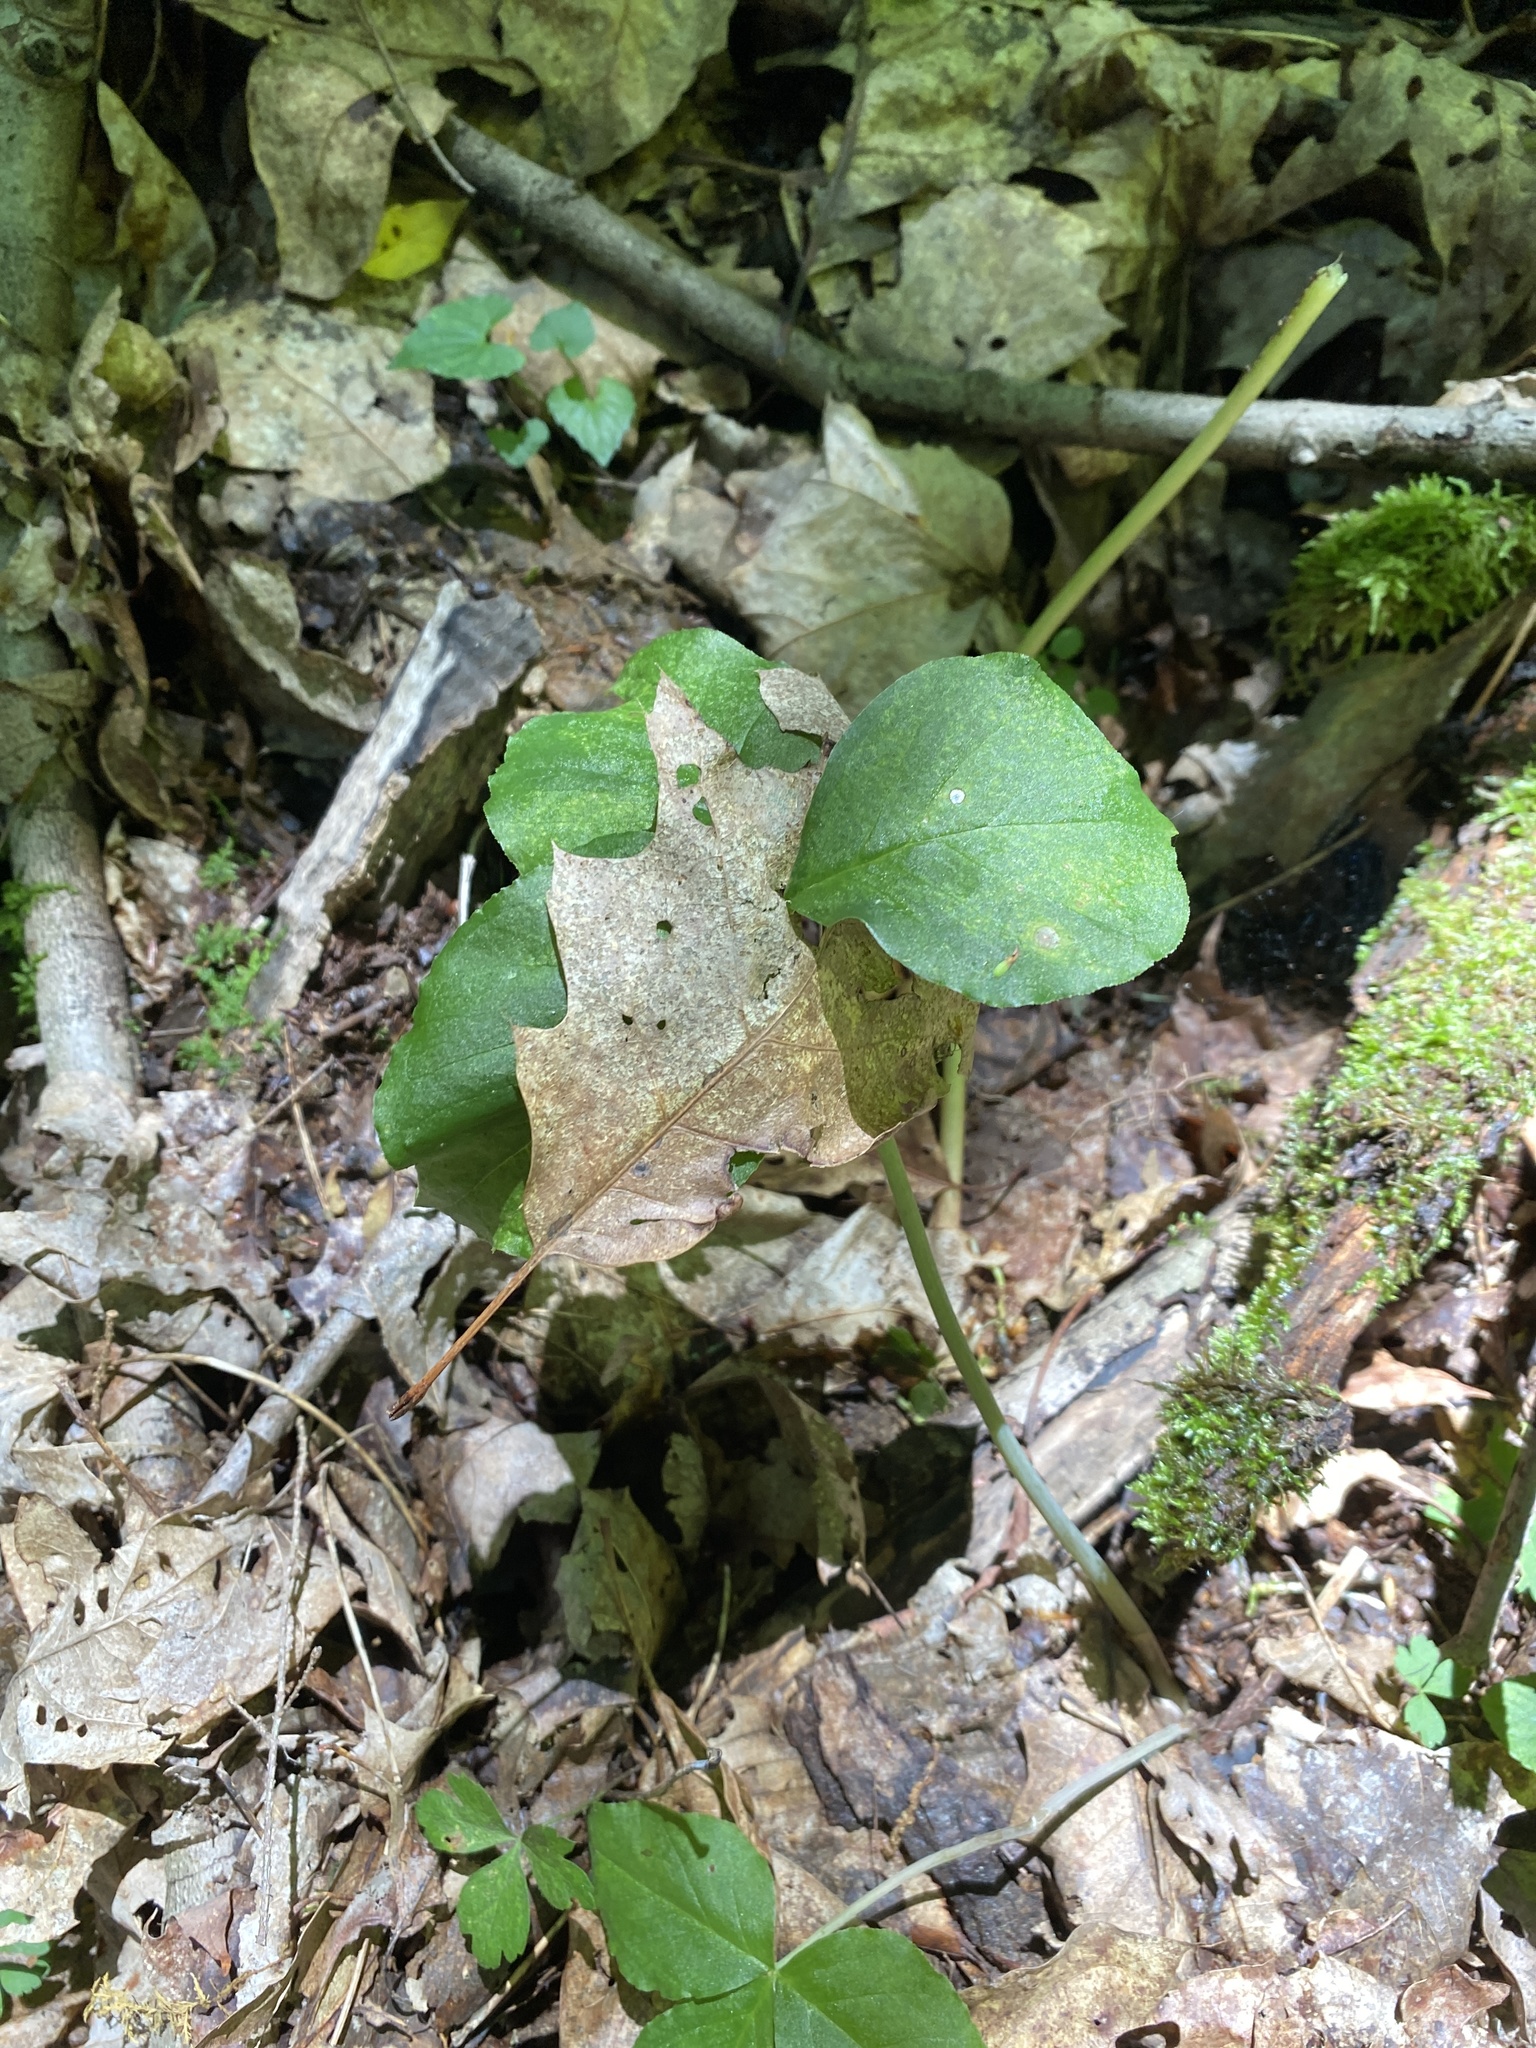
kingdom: Plantae
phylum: Tracheophyta
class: Liliopsida
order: Alismatales
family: Araceae
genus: Arisaema
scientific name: Arisaema triphyllum
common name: Jack-in-the-pulpit
